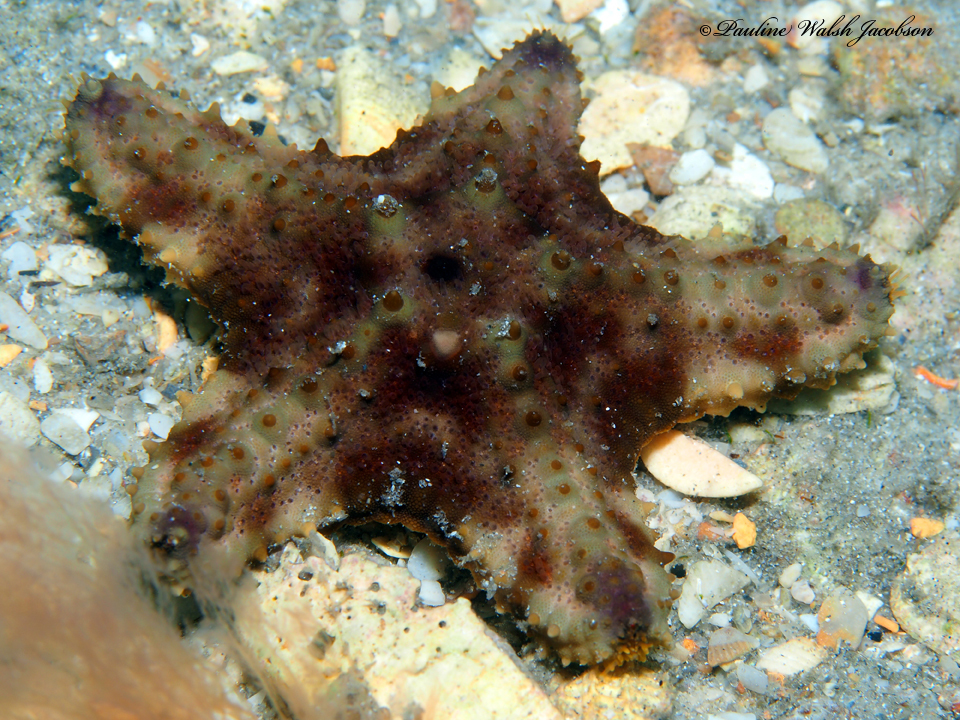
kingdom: Animalia
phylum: Echinodermata
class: Asteroidea
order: Valvatida
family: Oreasteridae
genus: Oreaster
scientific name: Oreaster reticulatus
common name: Cushion sea star
